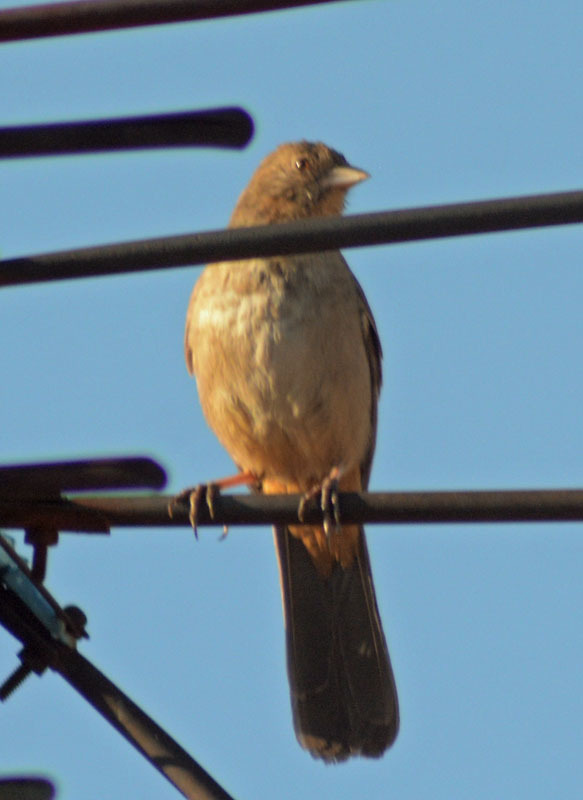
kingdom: Animalia
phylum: Chordata
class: Aves
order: Passeriformes
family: Passerellidae
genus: Melozone
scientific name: Melozone fusca
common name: Canyon towhee
